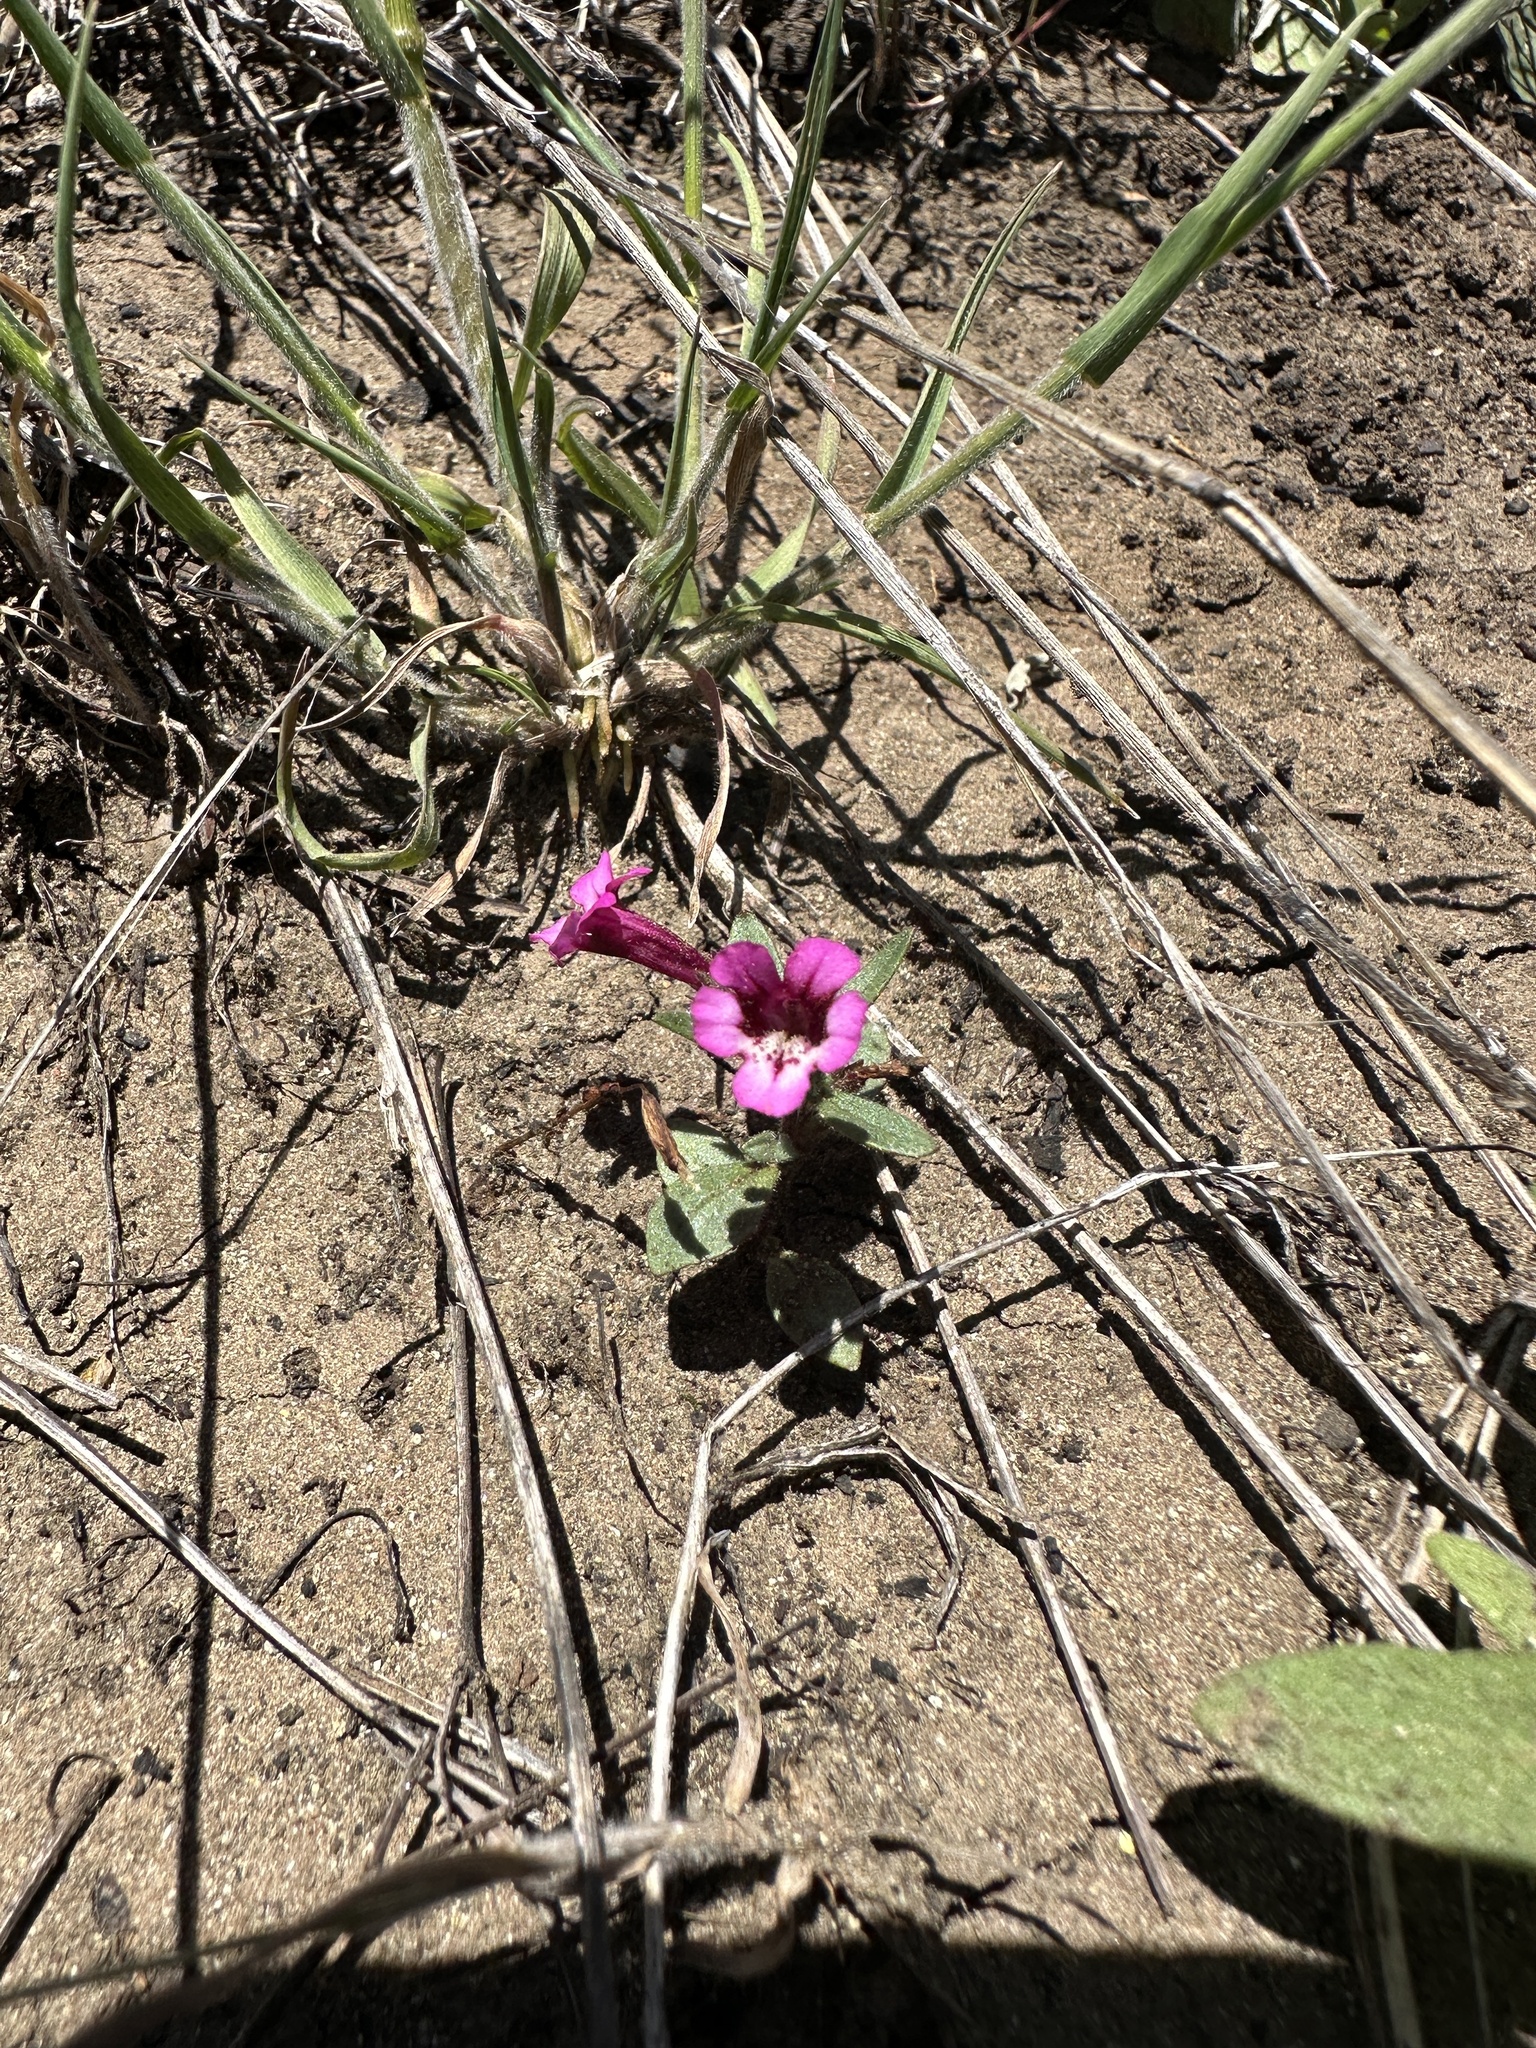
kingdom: Plantae
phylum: Tracheophyta
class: Magnoliopsida
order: Lamiales
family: Phrymaceae
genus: Diplacus
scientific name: Diplacus layneae
